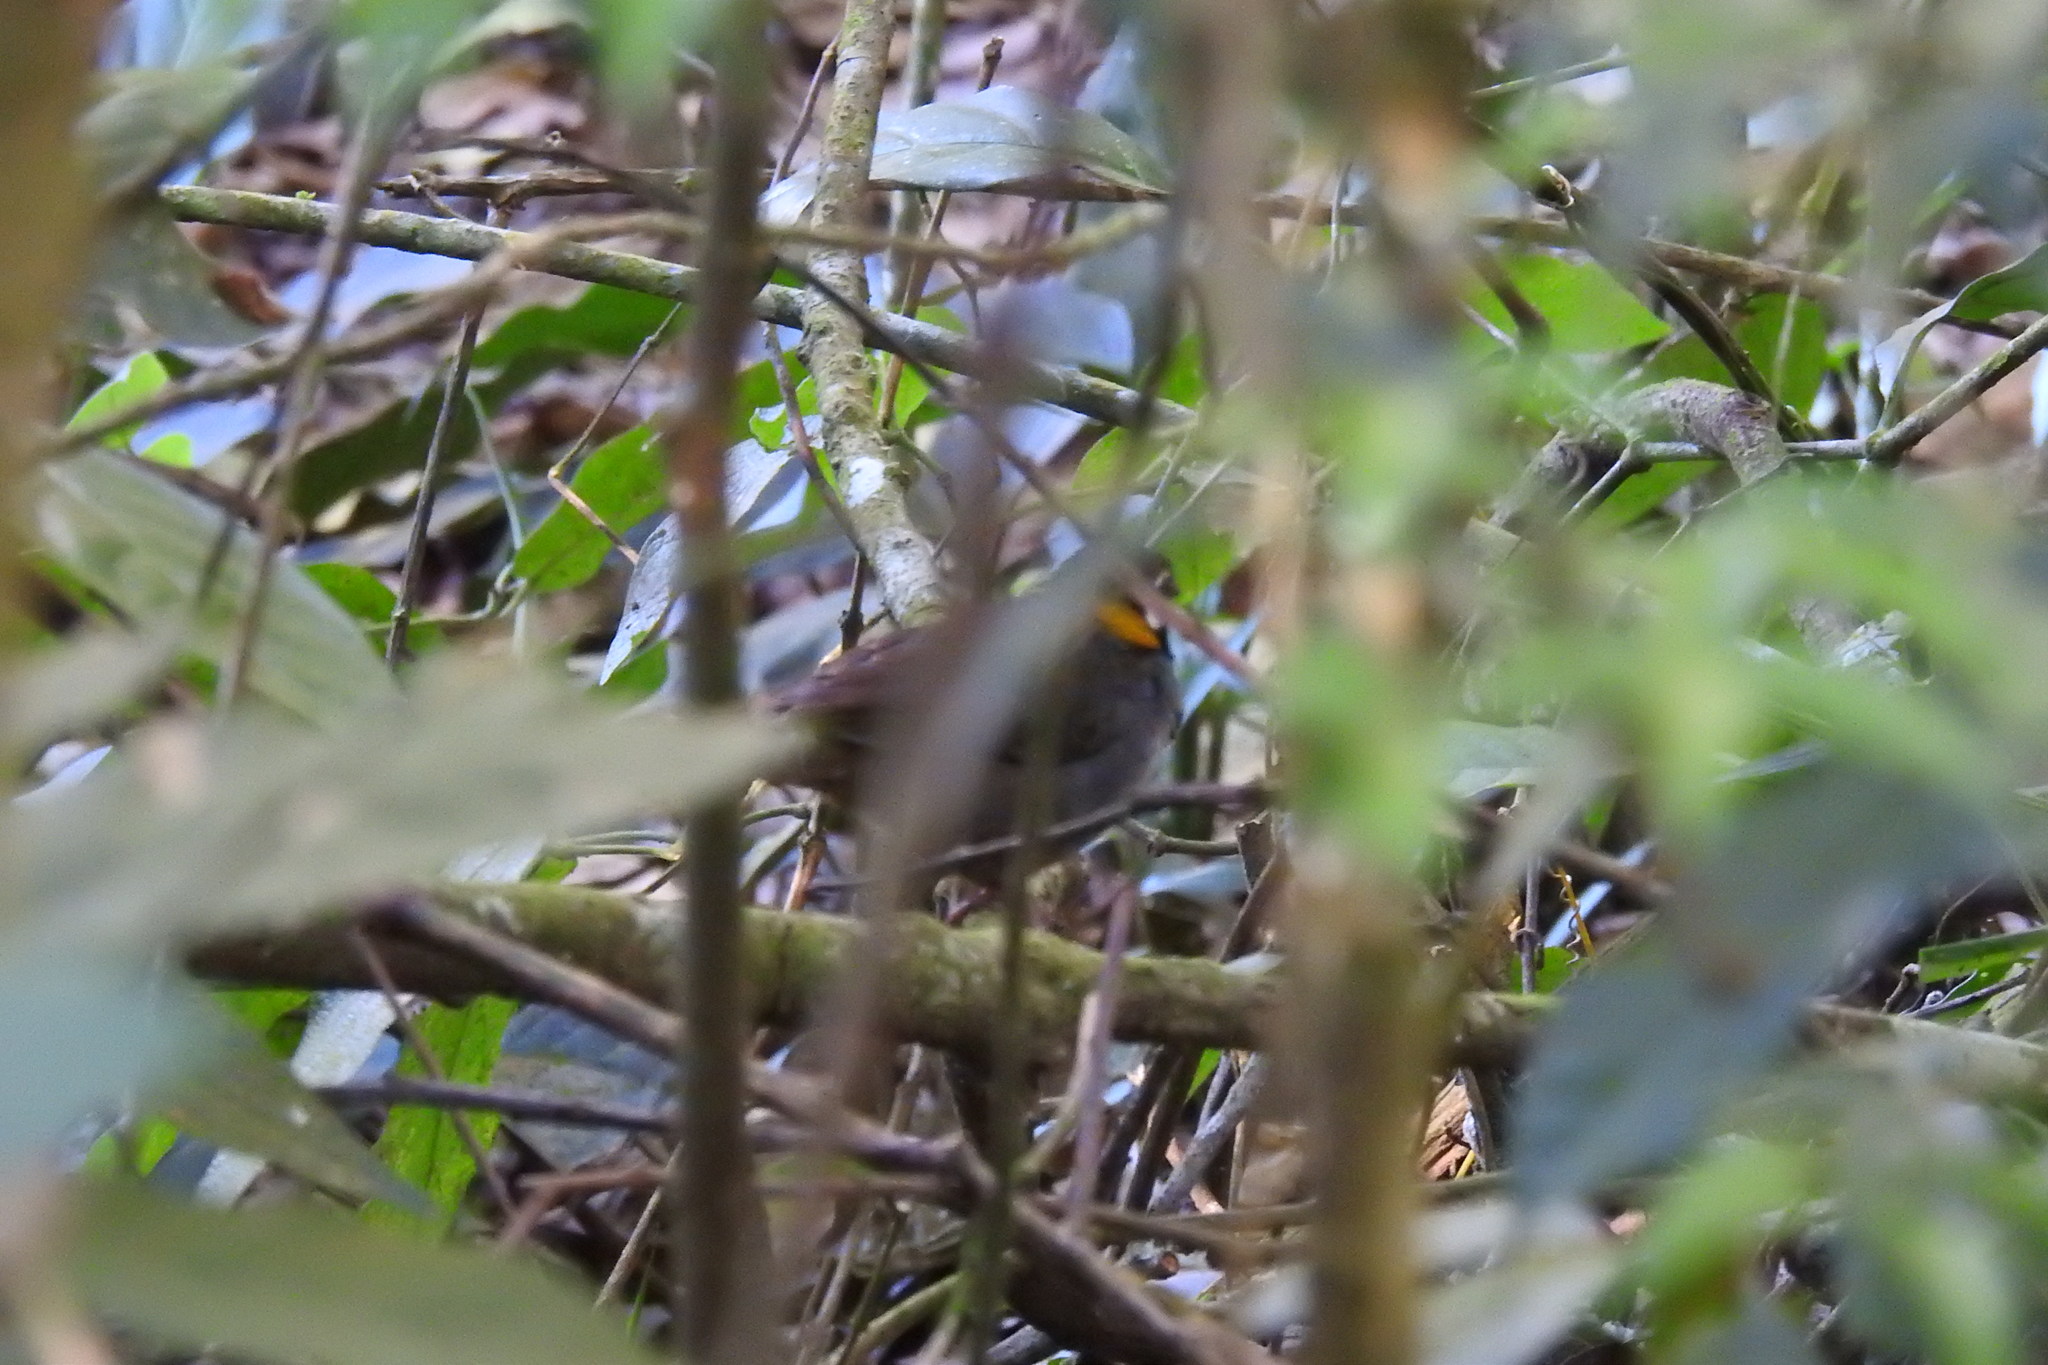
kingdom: Animalia
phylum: Chordata
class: Aves
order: Passeriformes
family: Passerellidae
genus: Melozone
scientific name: Melozone leucotis
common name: White-eared ground-sparrow
